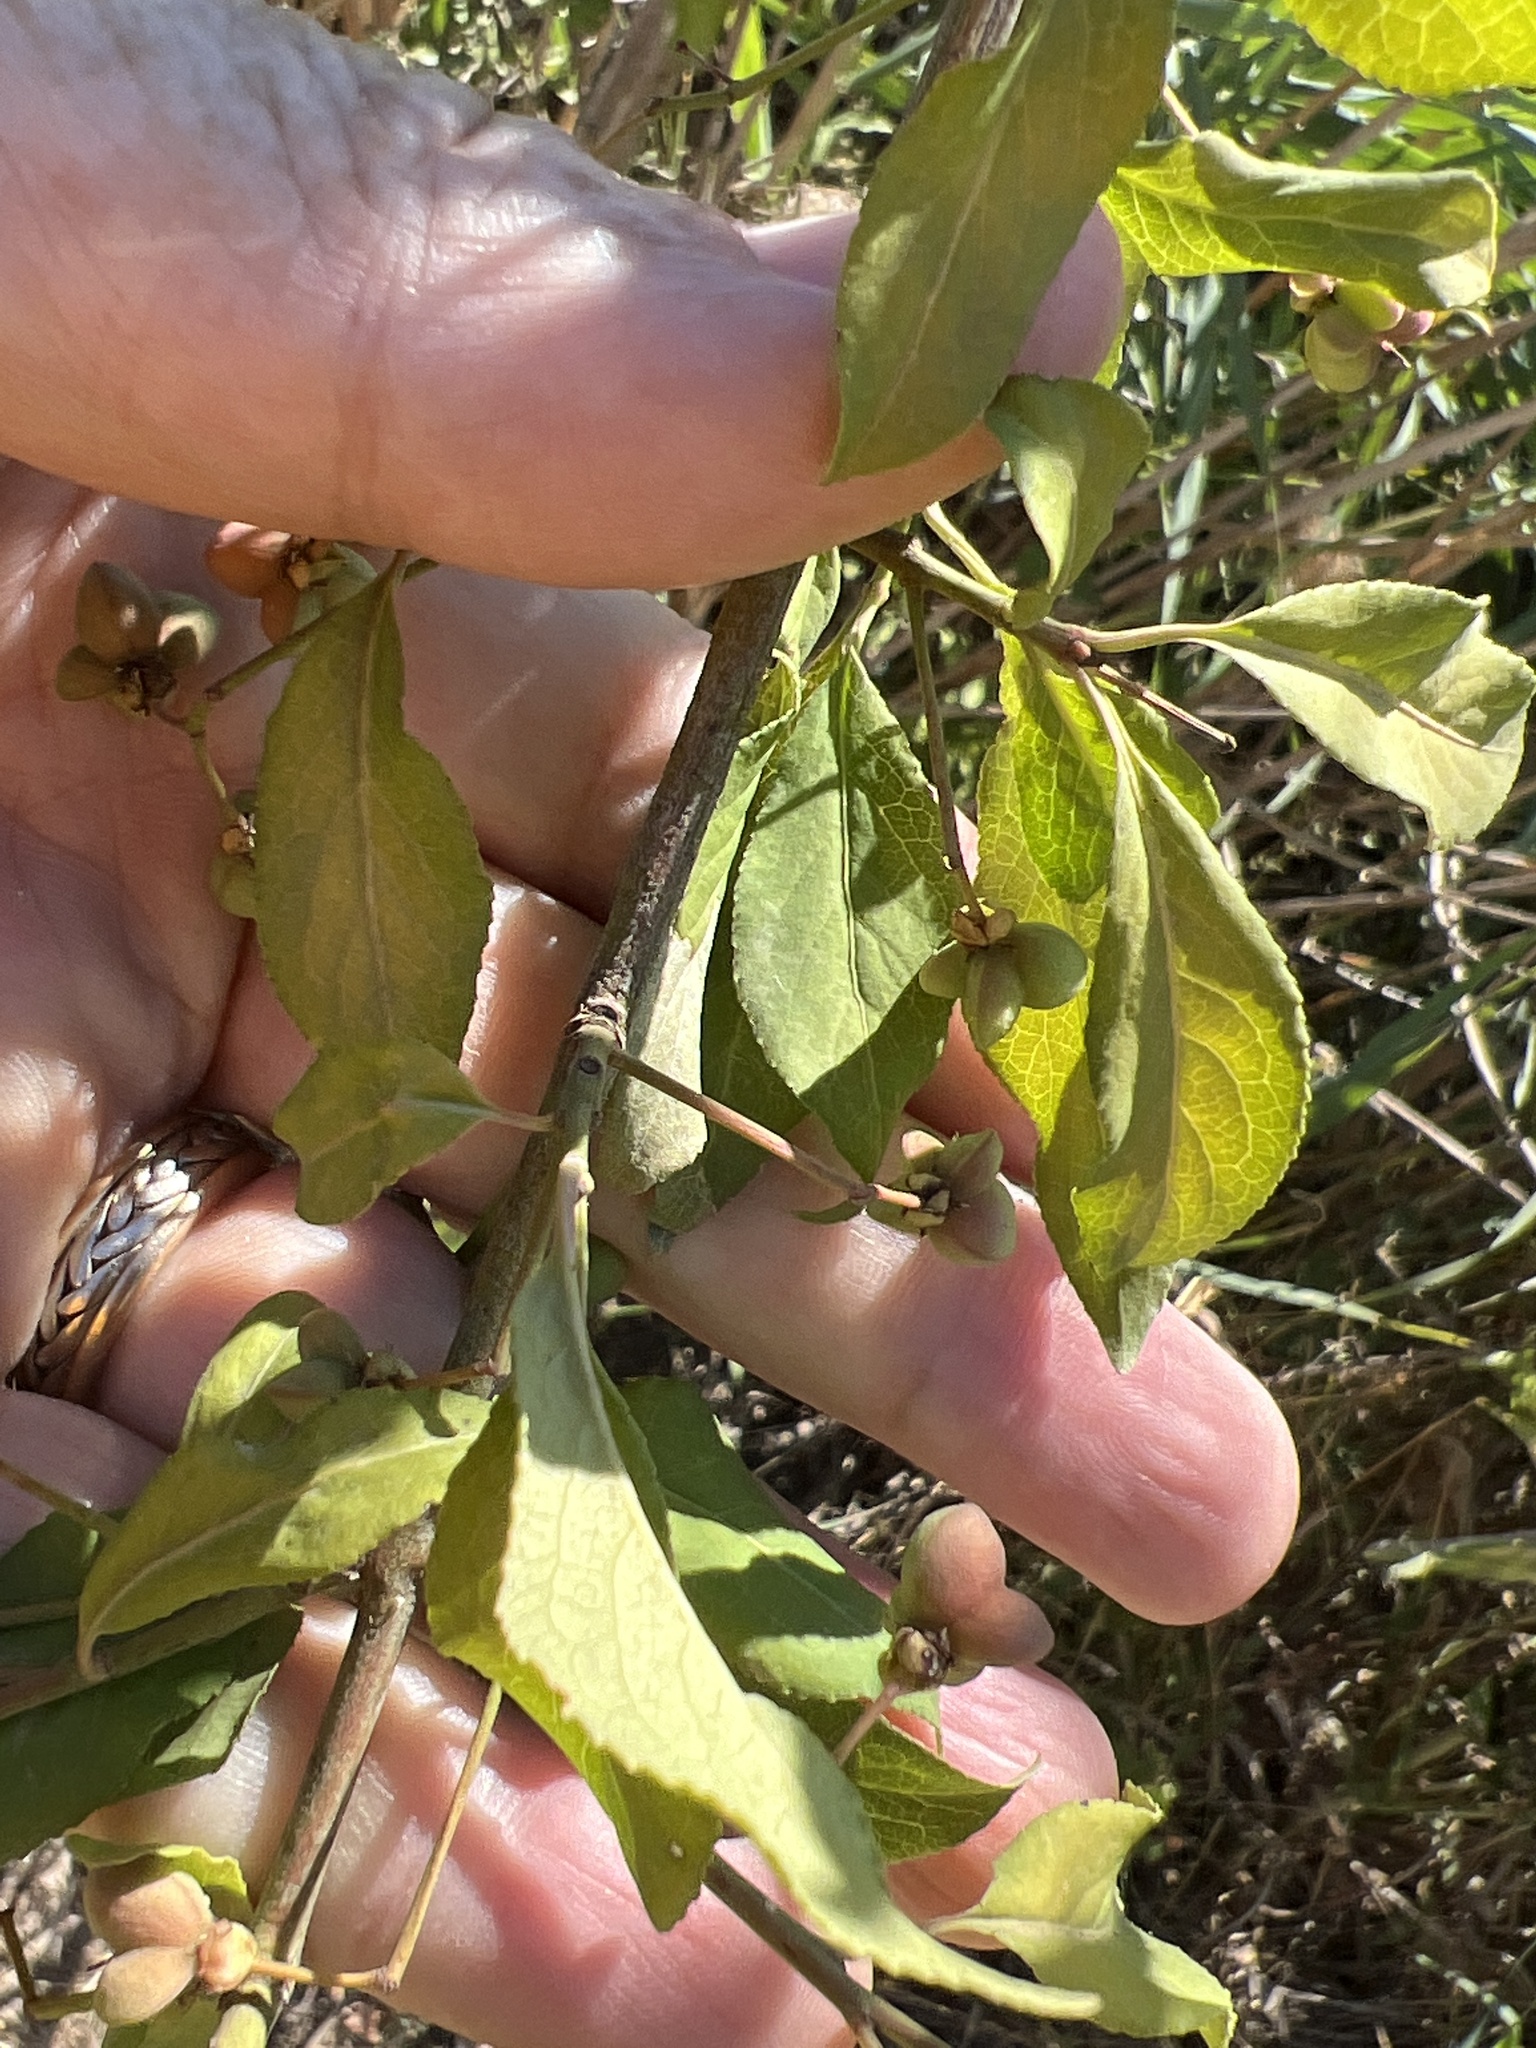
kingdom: Plantae
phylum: Tracheophyta
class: Magnoliopsida
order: Celastrales
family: Celastraceae
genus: Euonymus
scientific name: Euonymus europaeus
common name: Spindle
